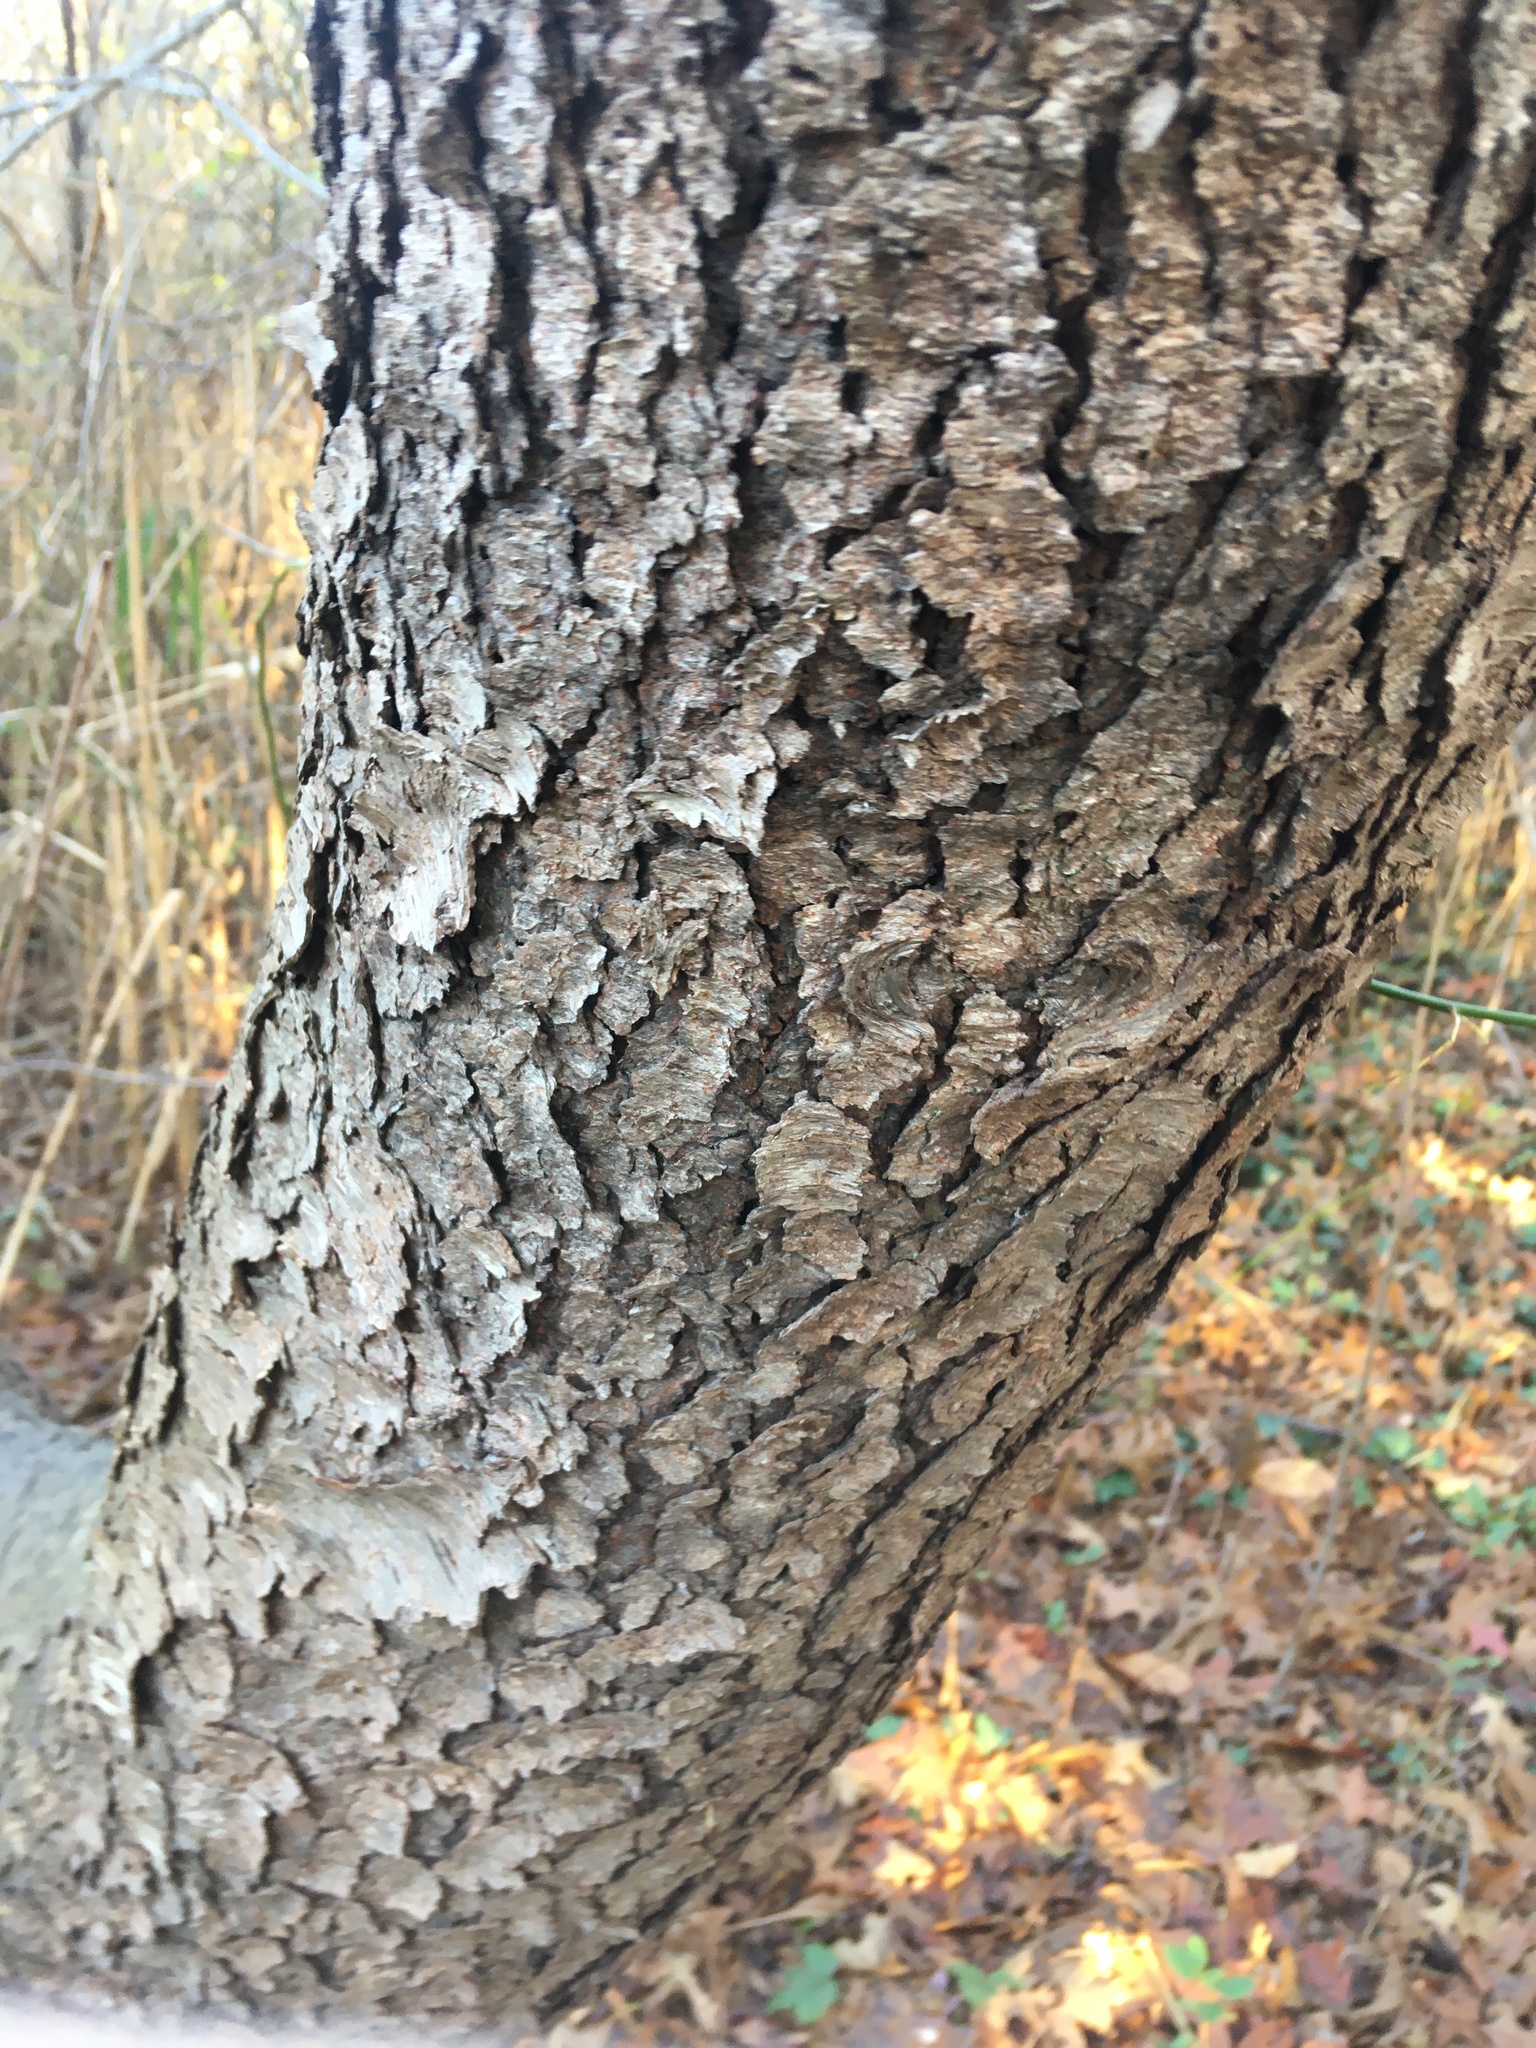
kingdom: Plantae
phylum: Tracheophyta
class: Magnoliopsida
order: Rosales
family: Rosaceae
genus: Prunus
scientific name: Prunus serotina
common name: Black cherry
